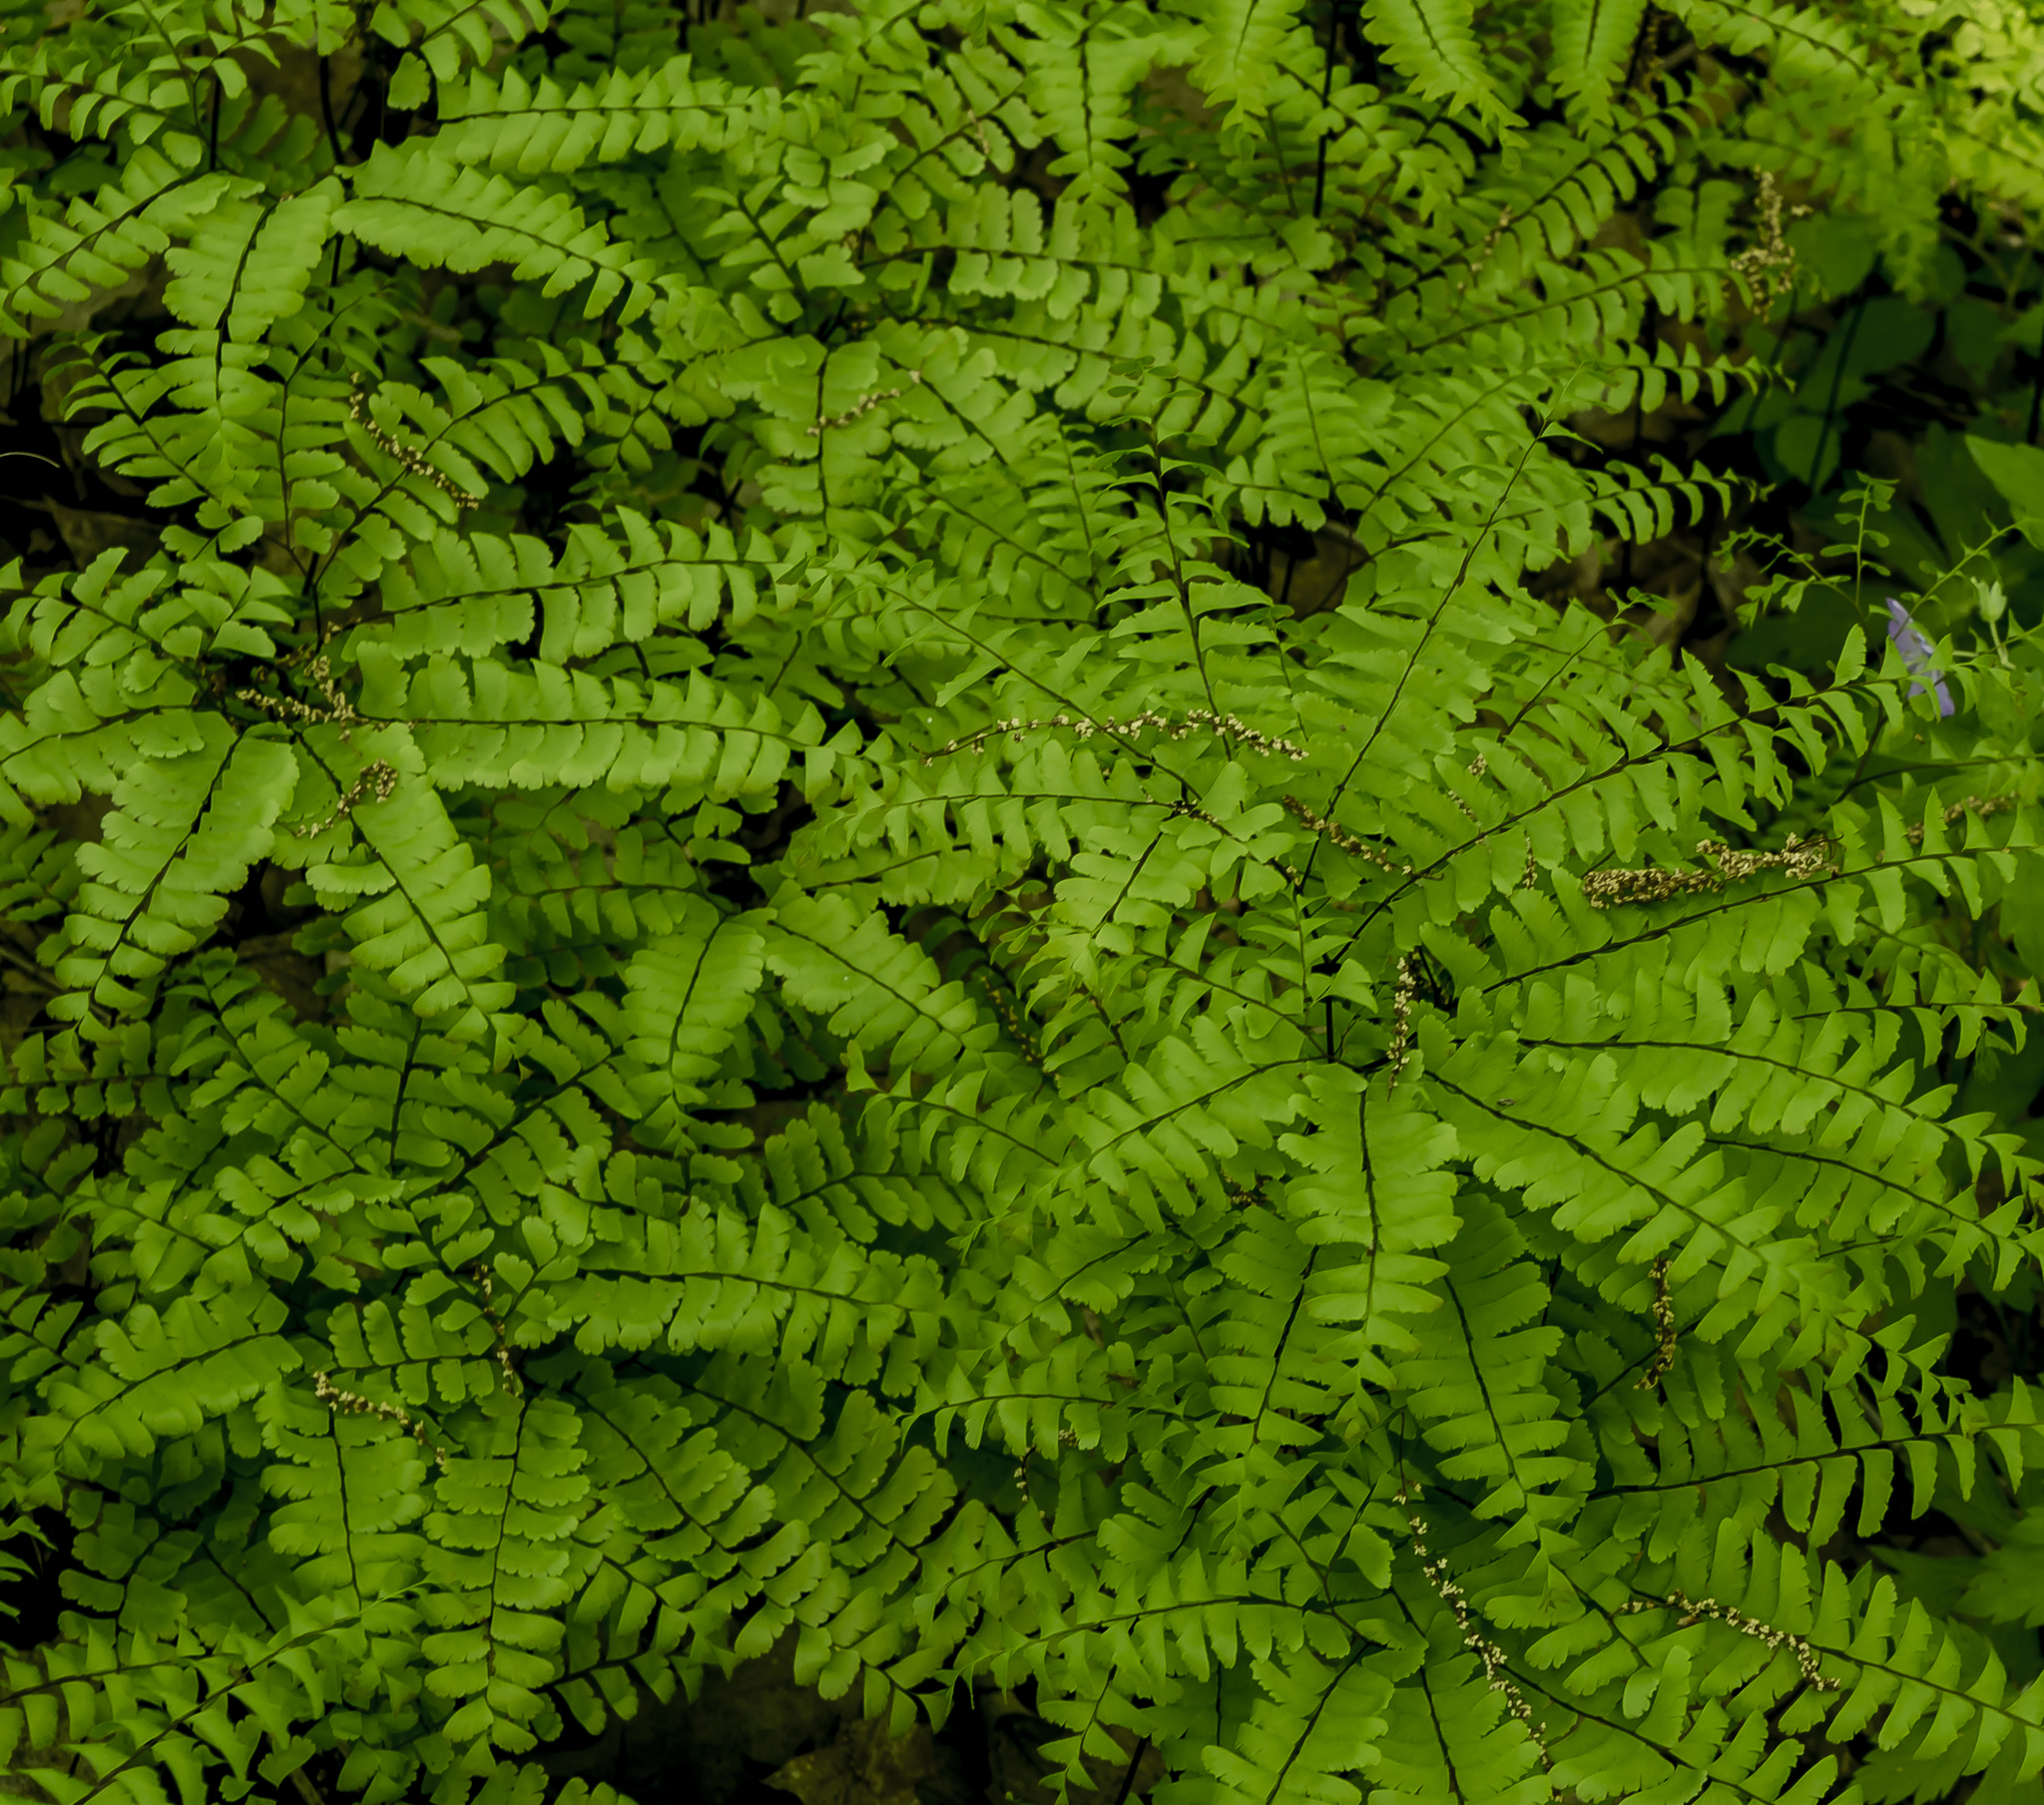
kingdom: Plantae
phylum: Tracheophyta
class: Polypodiopsida
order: Polypodiales
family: Pteridaceae
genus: Adiantum
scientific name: Adiantum pedatum
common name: Five-finger fern
